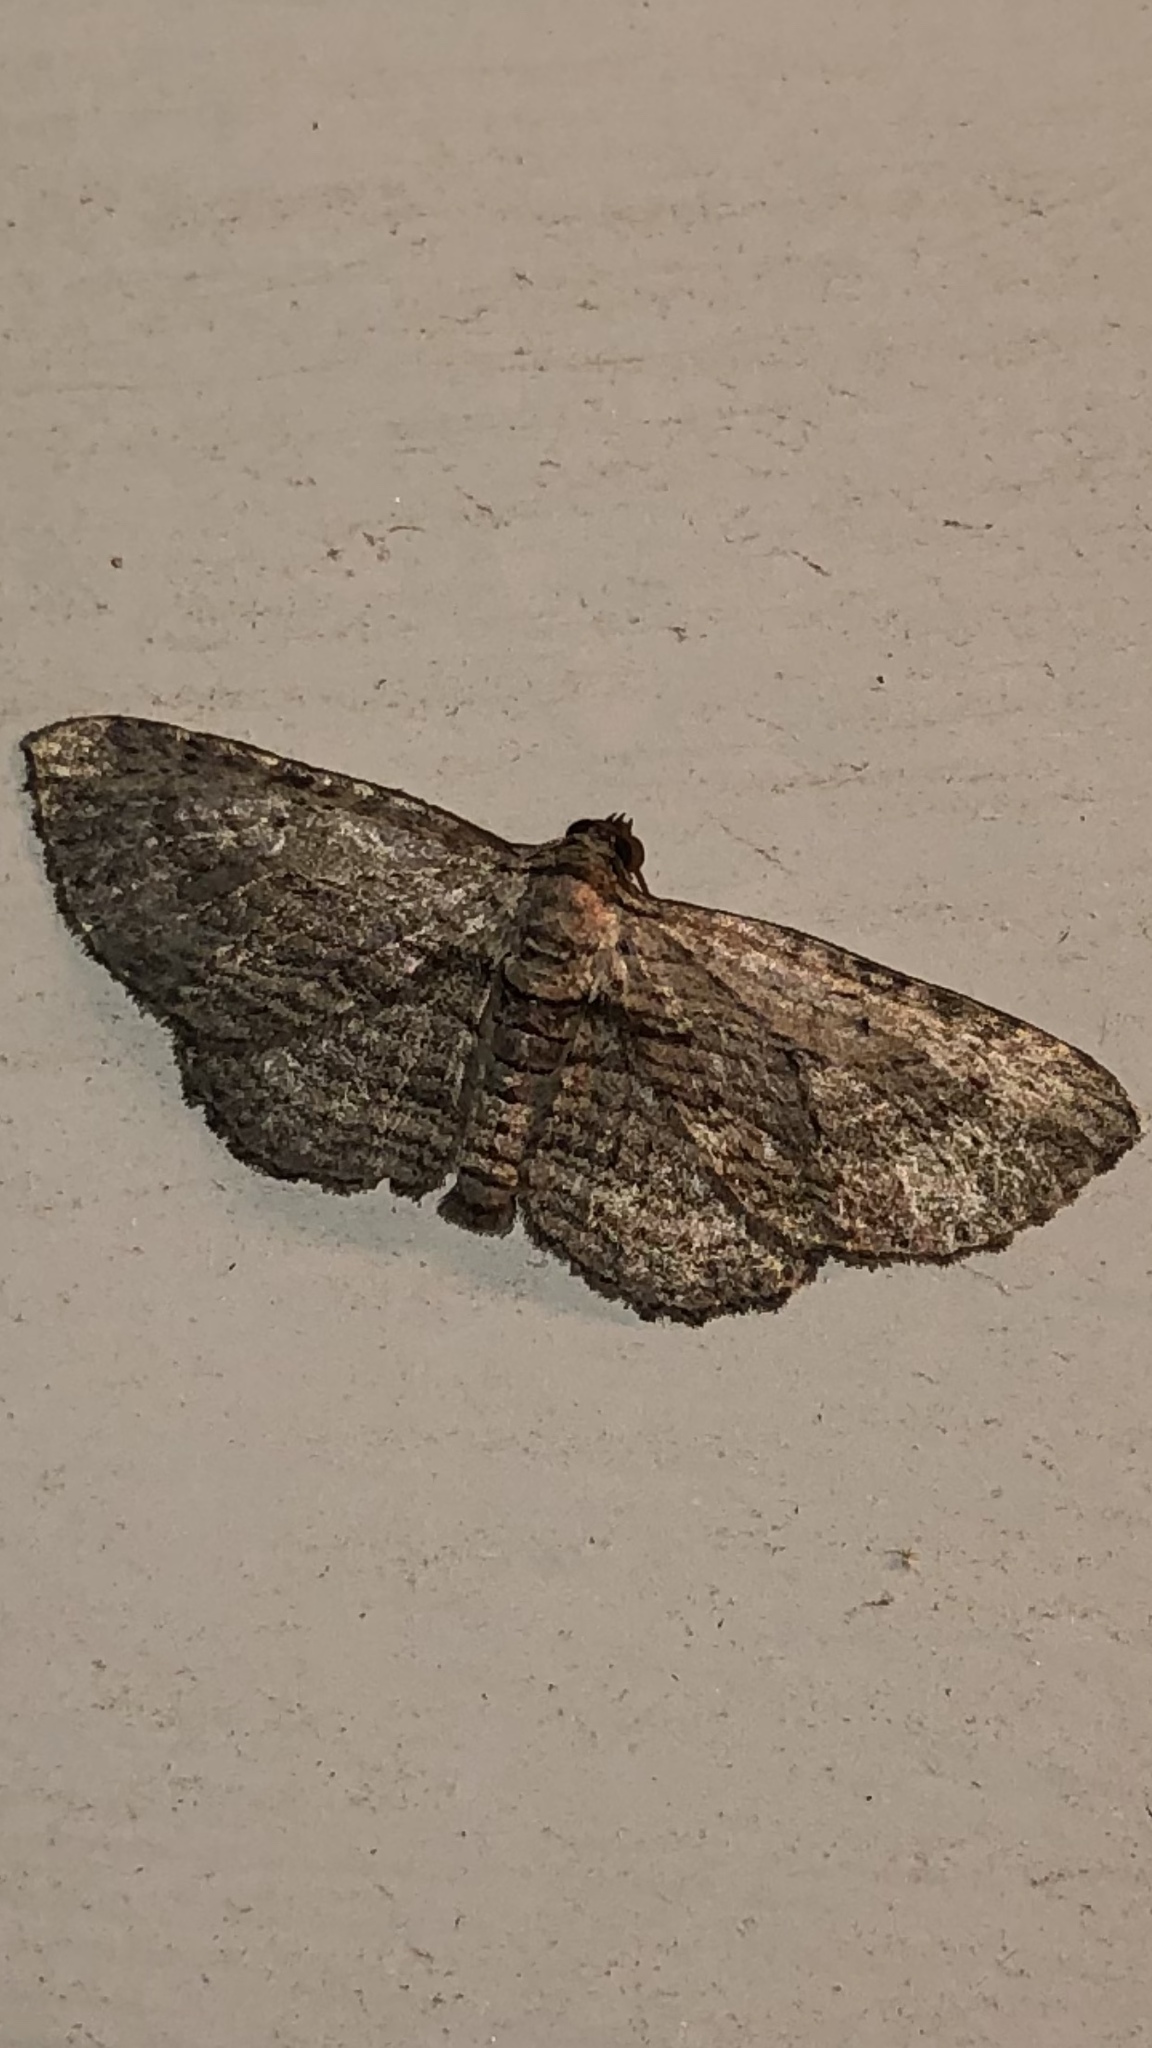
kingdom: Animalia
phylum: Arthropoda
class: Insecta
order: Lepidoptera
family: Geometridae
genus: Horisme
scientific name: Horisme intestinata
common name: Brown bark carpet
